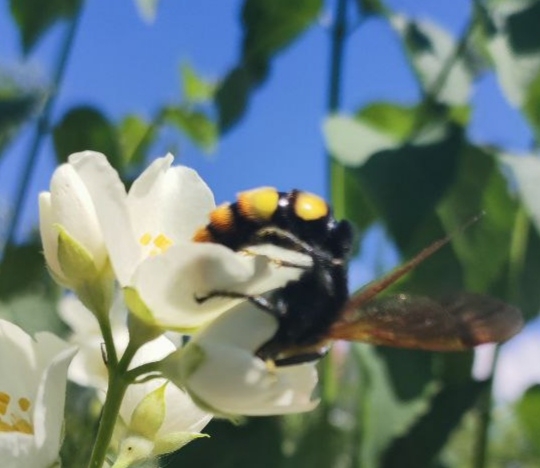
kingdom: Animalia
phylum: Arthropoda
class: Insecta
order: Hymenoptera
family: Scoliidae
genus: Megascolia
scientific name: Megascolia maculata
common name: Mammoth wasp
